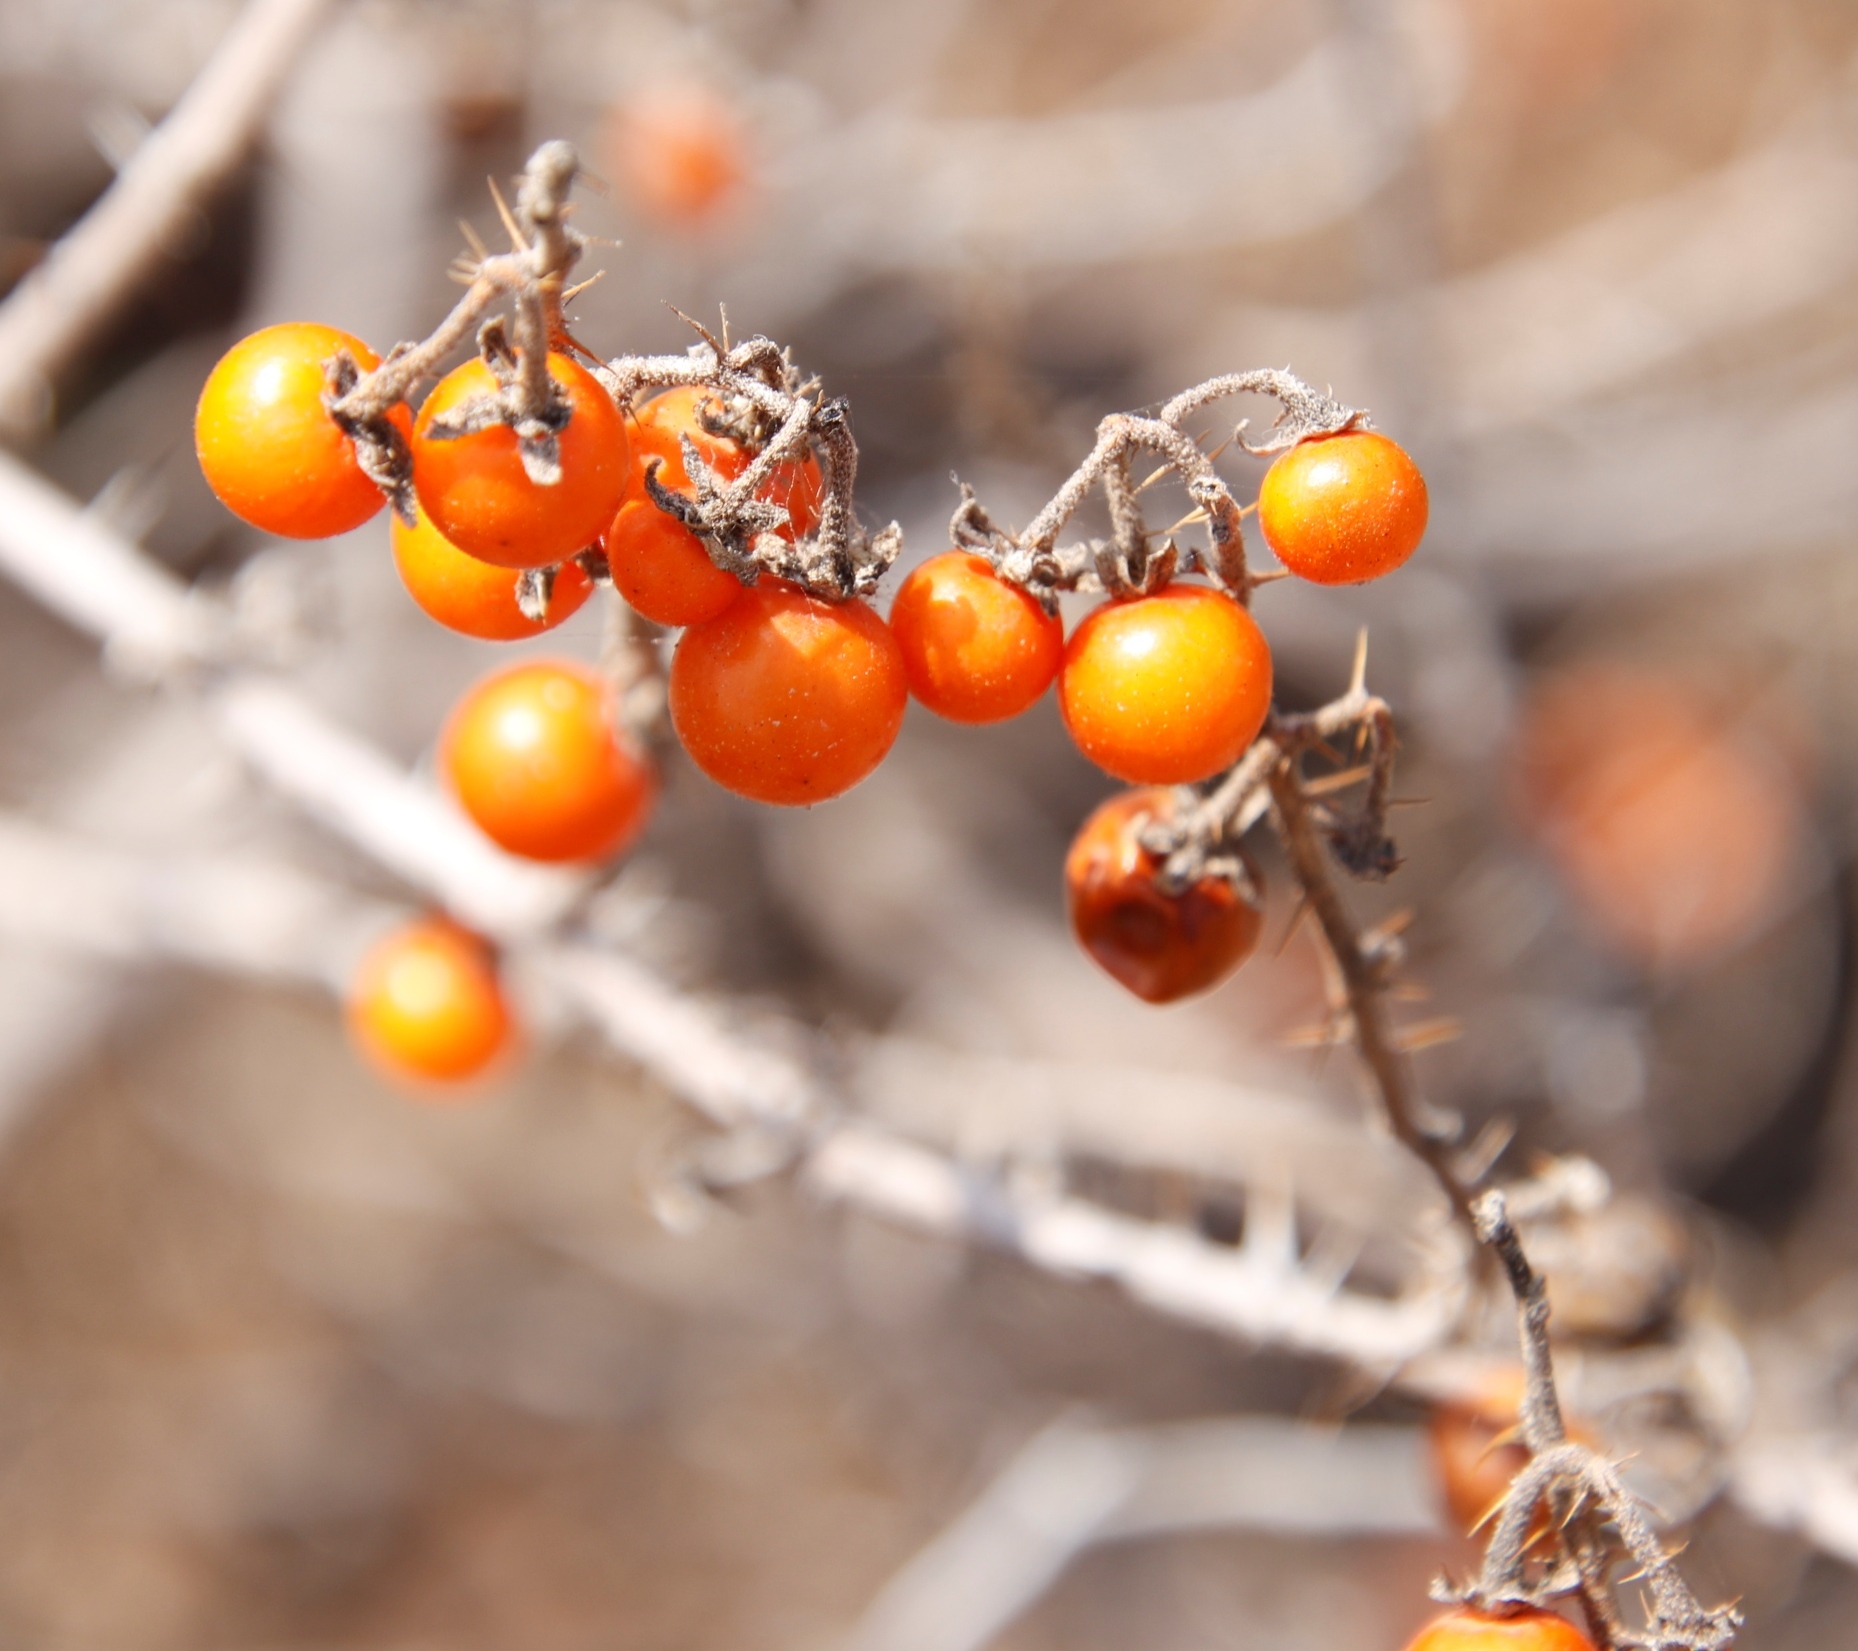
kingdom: Plantae
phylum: Tracheophyta
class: Magnoliopsida
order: Solanales
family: Solanaceae
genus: Solanum
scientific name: Solanum tomentosum
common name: Wild aubergine
